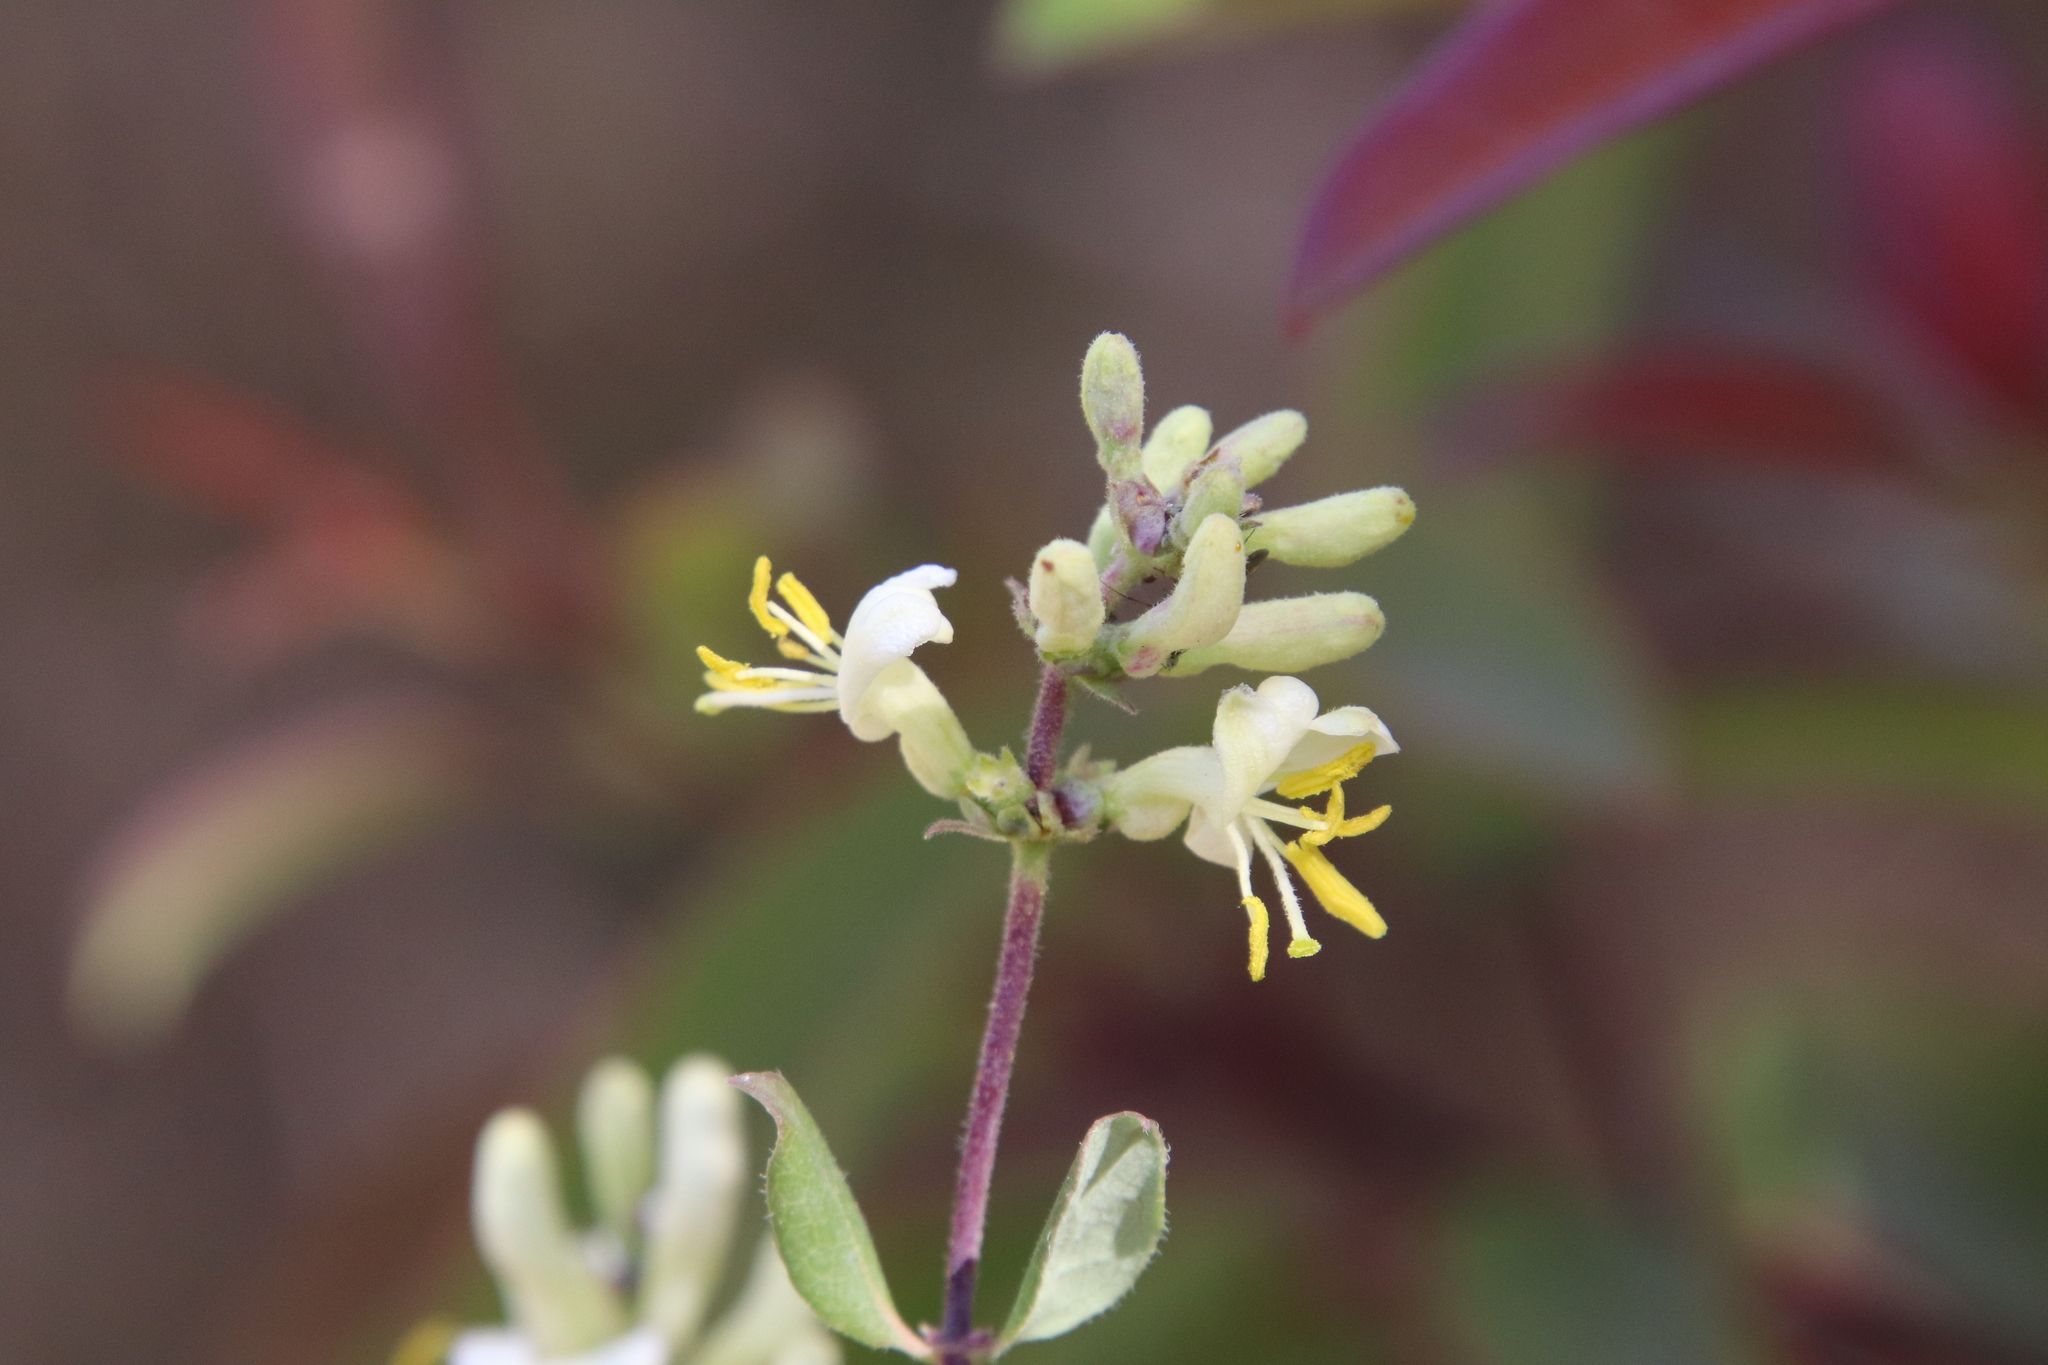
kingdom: Plantae
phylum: Tracheophyta
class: Magnoliopsida
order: Dipsacales
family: Caprifoliaceae
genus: Lonicera
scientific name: Lonicera subspicata
